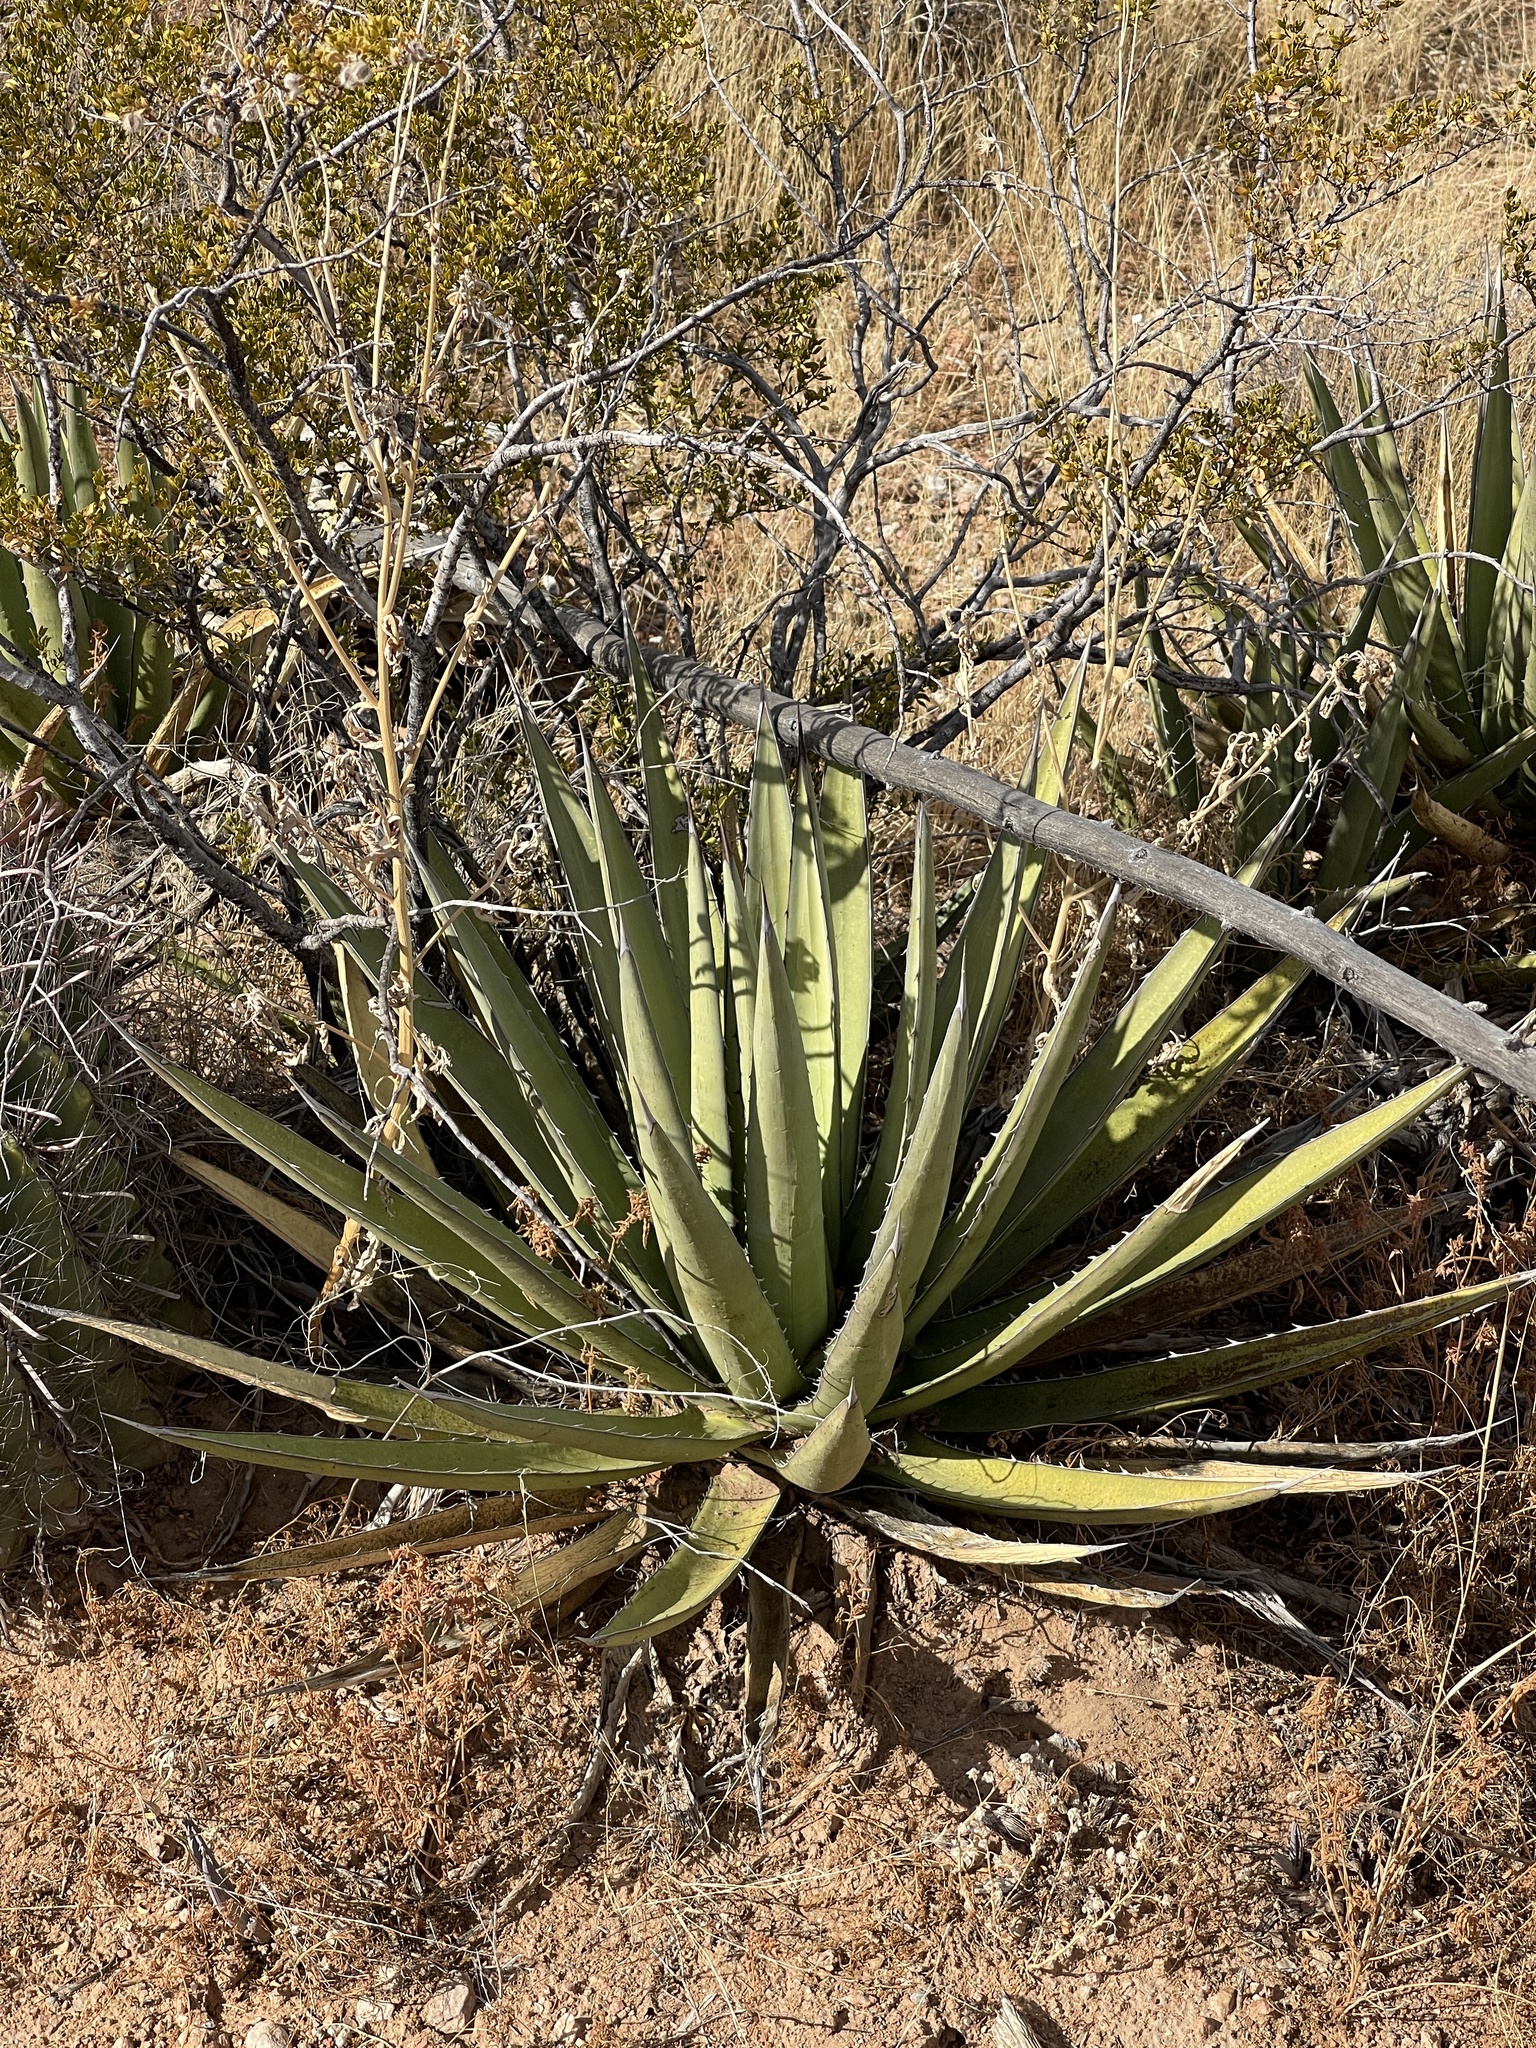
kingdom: Plantae
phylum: Tracheophyta
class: Liliopsida
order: Asparagales
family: Asparagaceae
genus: Agave
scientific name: Agave lechuguilla
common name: Lecheguilla agave
